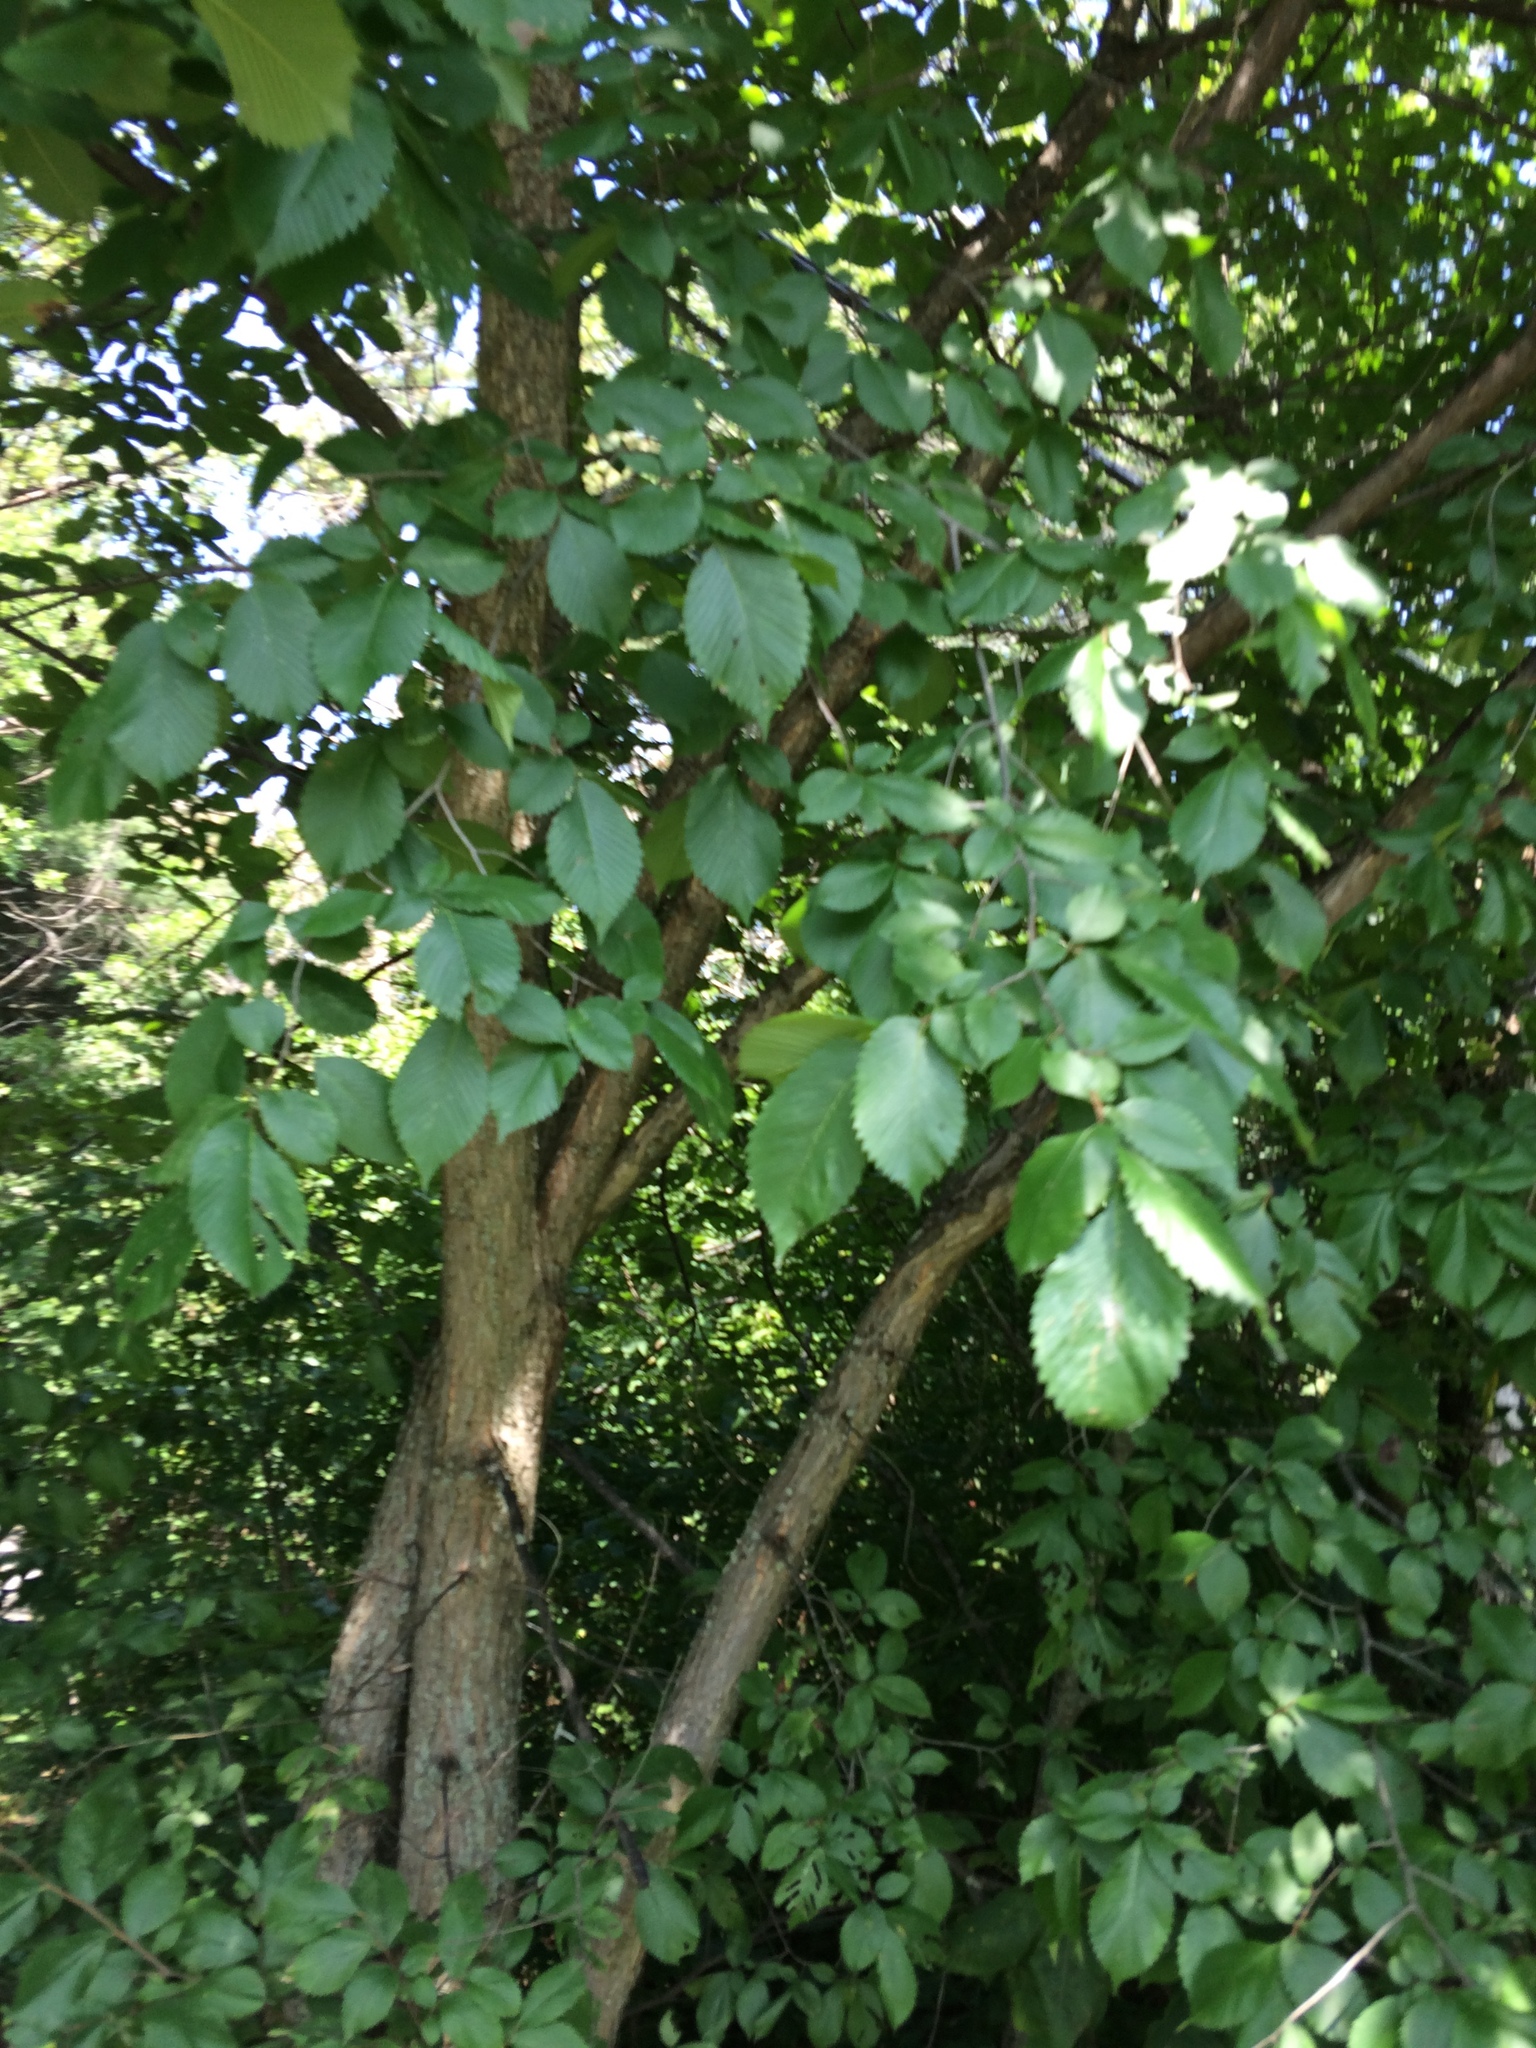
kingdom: Plantae
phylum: Tracheophyta
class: Magnoliopsida
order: Rosales
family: Ulmaceae
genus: Ulmus
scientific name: Ulmus americana
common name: American elm
